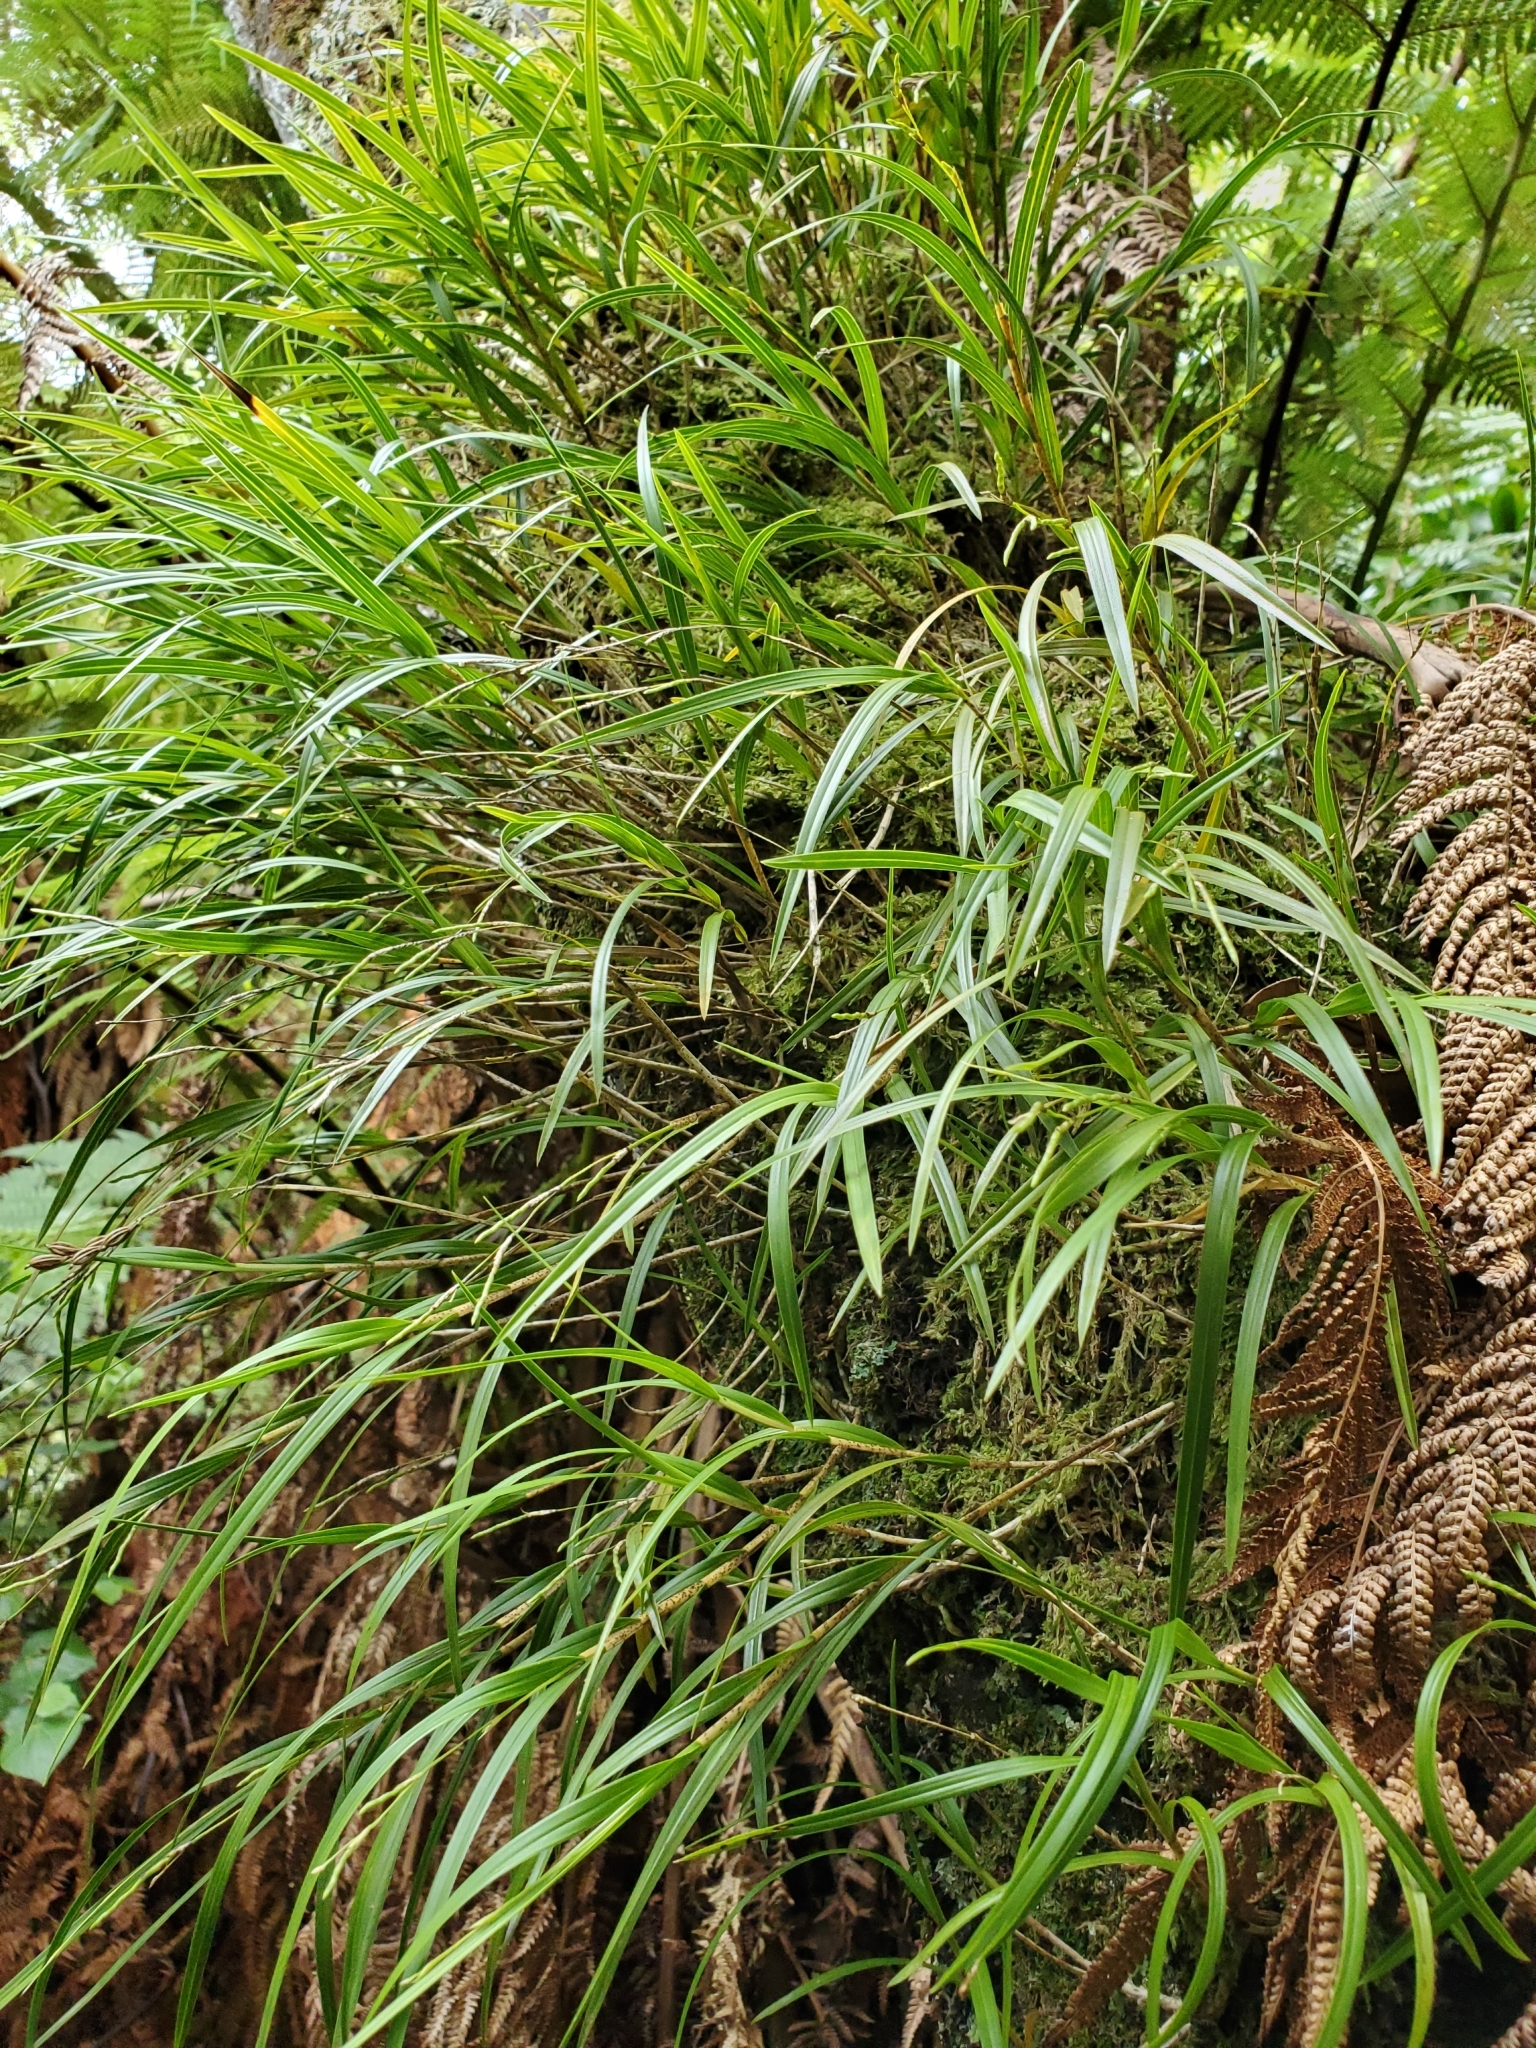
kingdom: Plantae
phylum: Tracheophyta
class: Liliopsida
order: Asparagales
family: Orchidaceae
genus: Earina
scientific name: Earina mucronata
